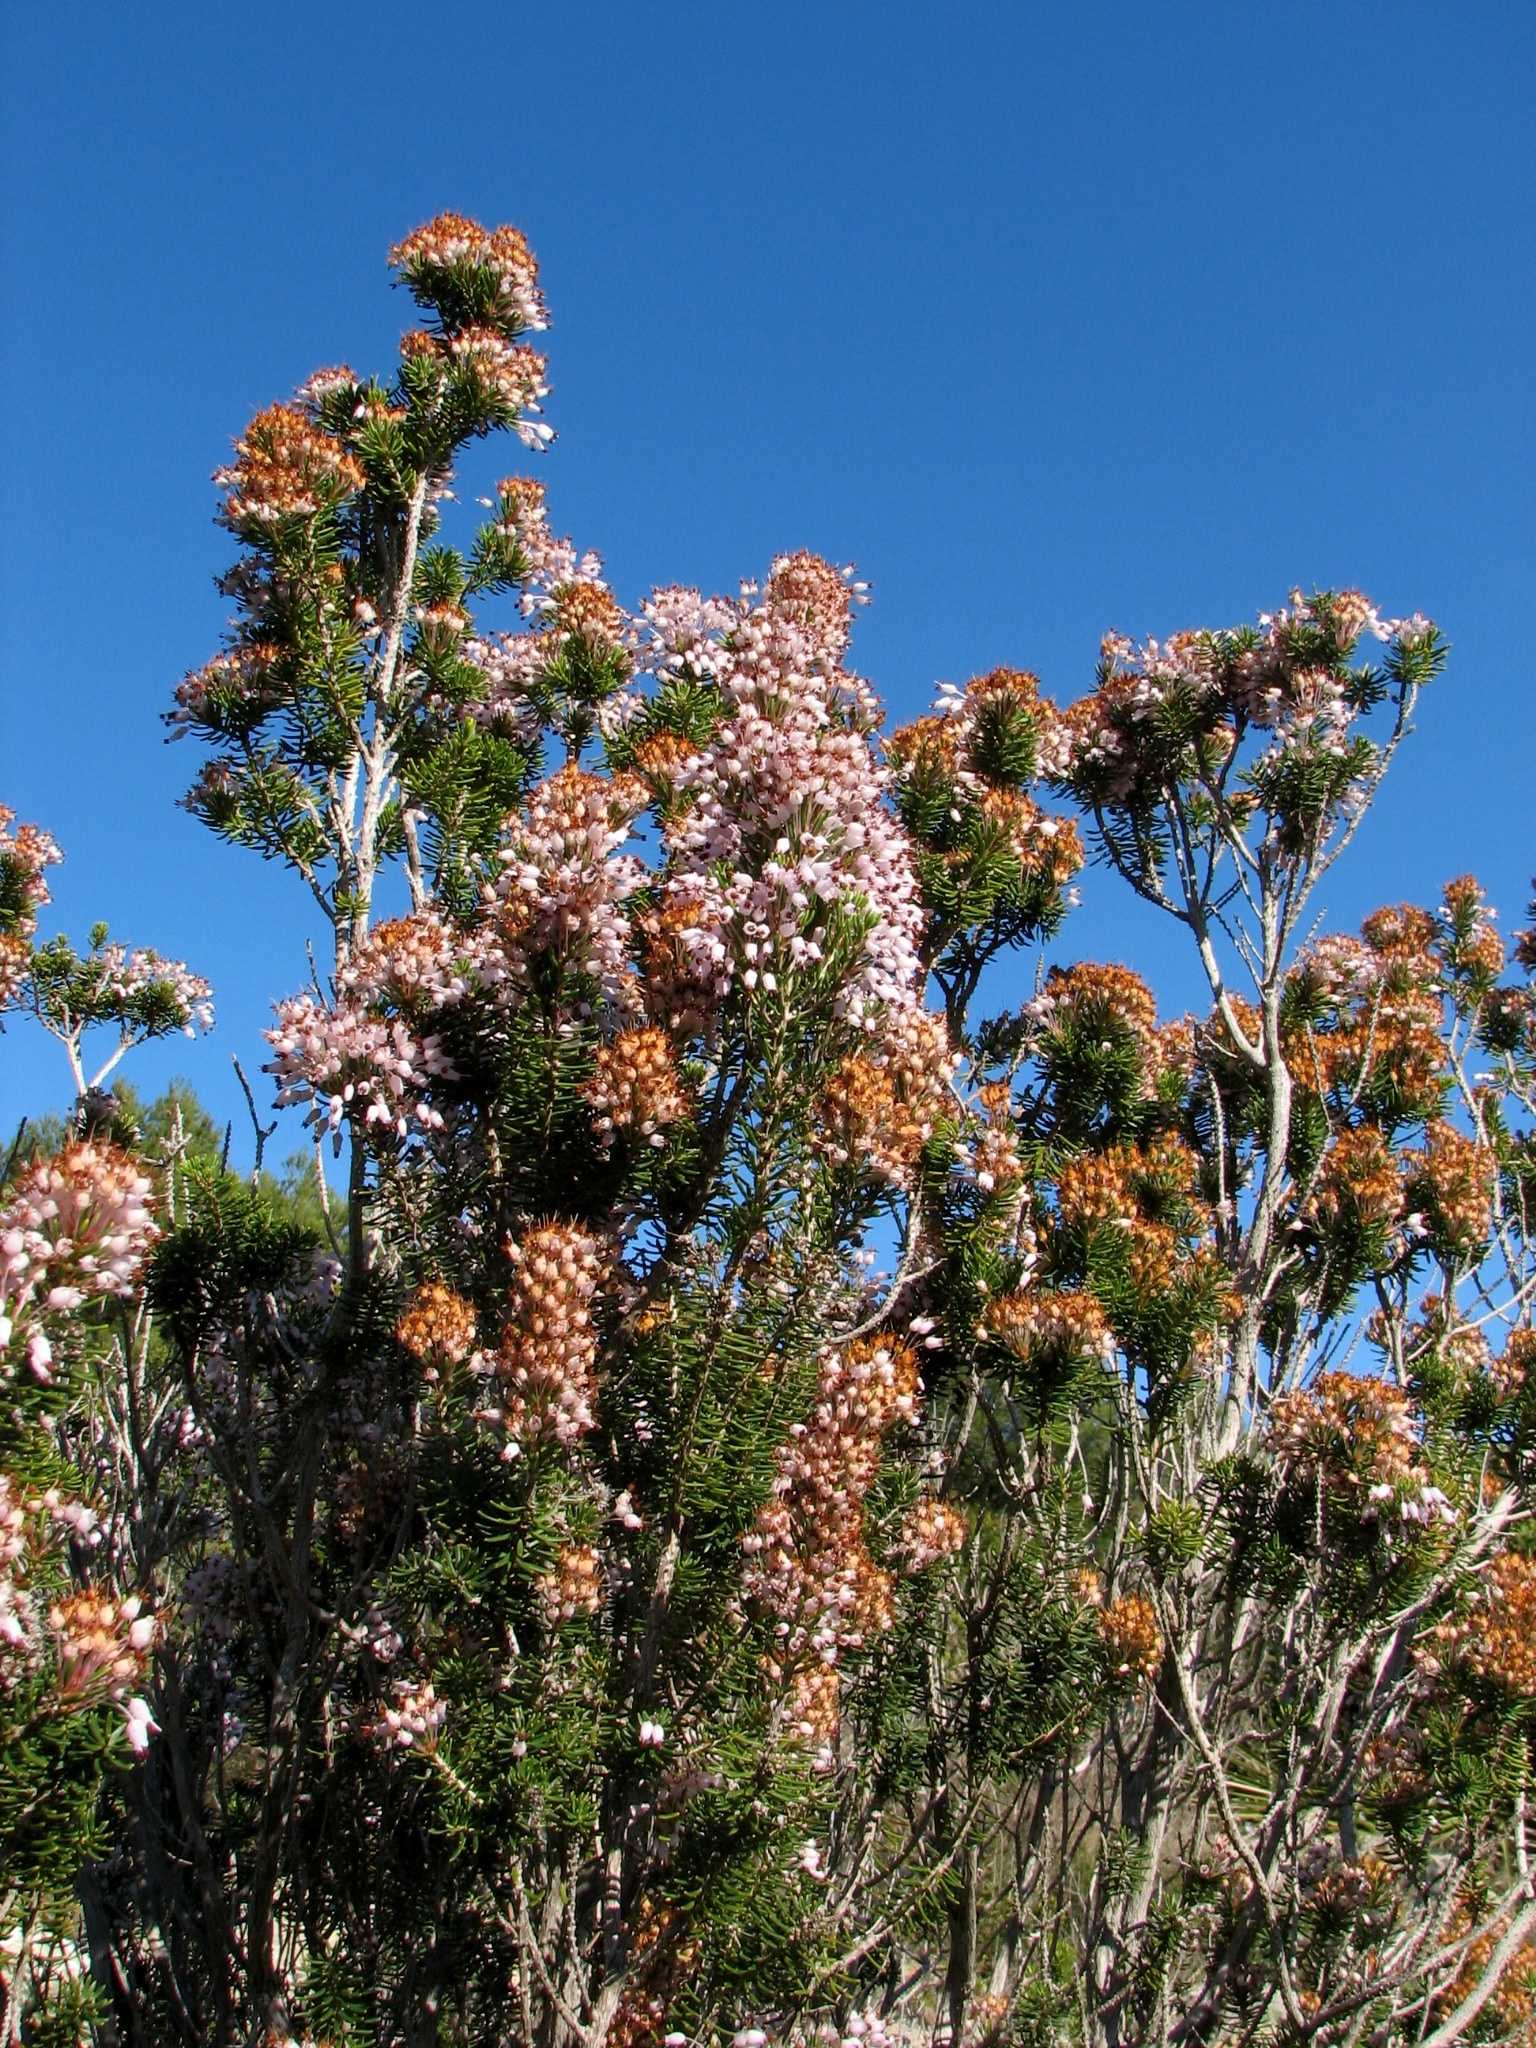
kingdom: Plantae
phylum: Tracheophyta
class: Magnoliopsida
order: Ericales
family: Ericaceae
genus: Erica
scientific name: Erica multiflora
